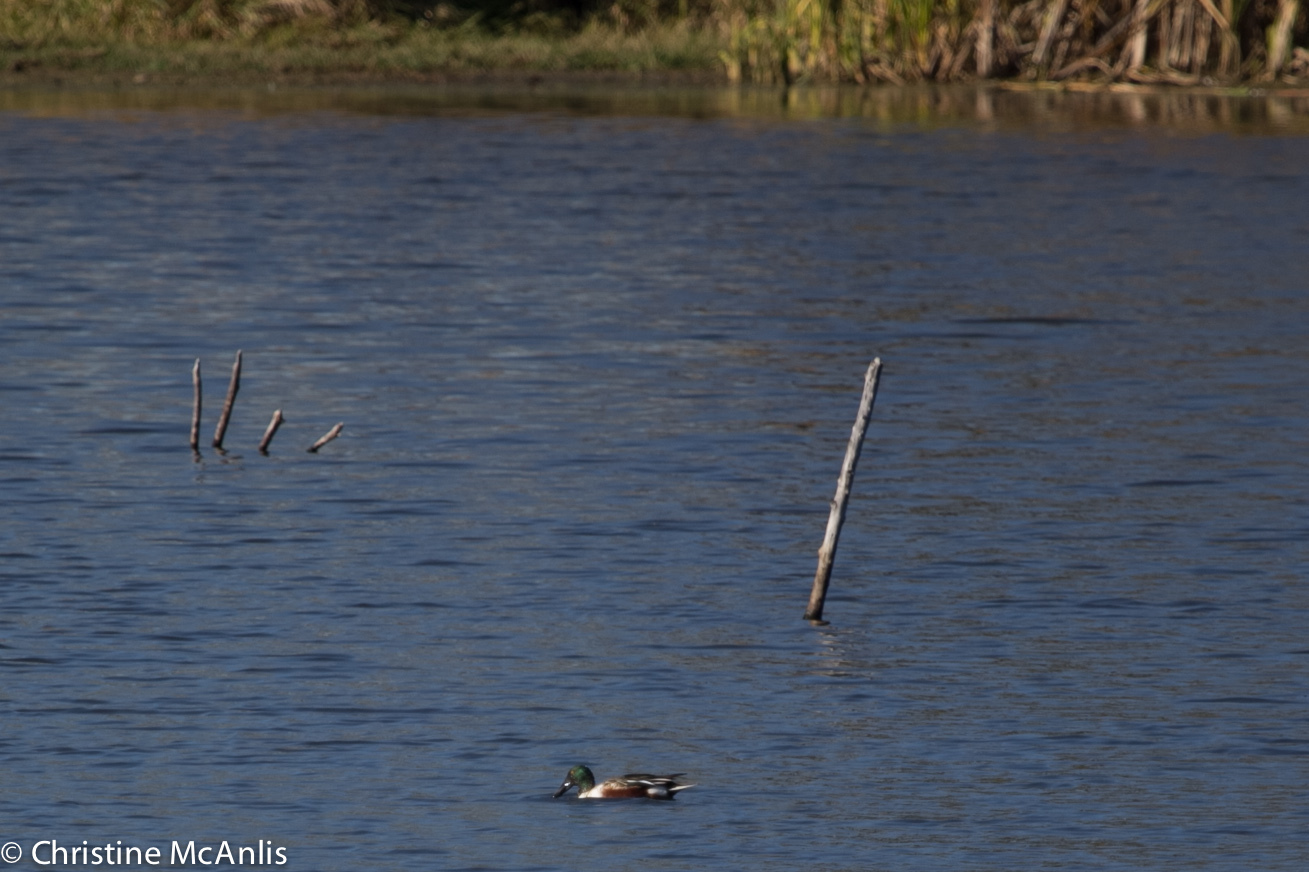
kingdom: Animalia
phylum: Chordata
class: Aves
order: Anseriformes
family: Anatidae
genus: Spatula
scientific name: Spatula clypeata
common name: Northern shoveler
